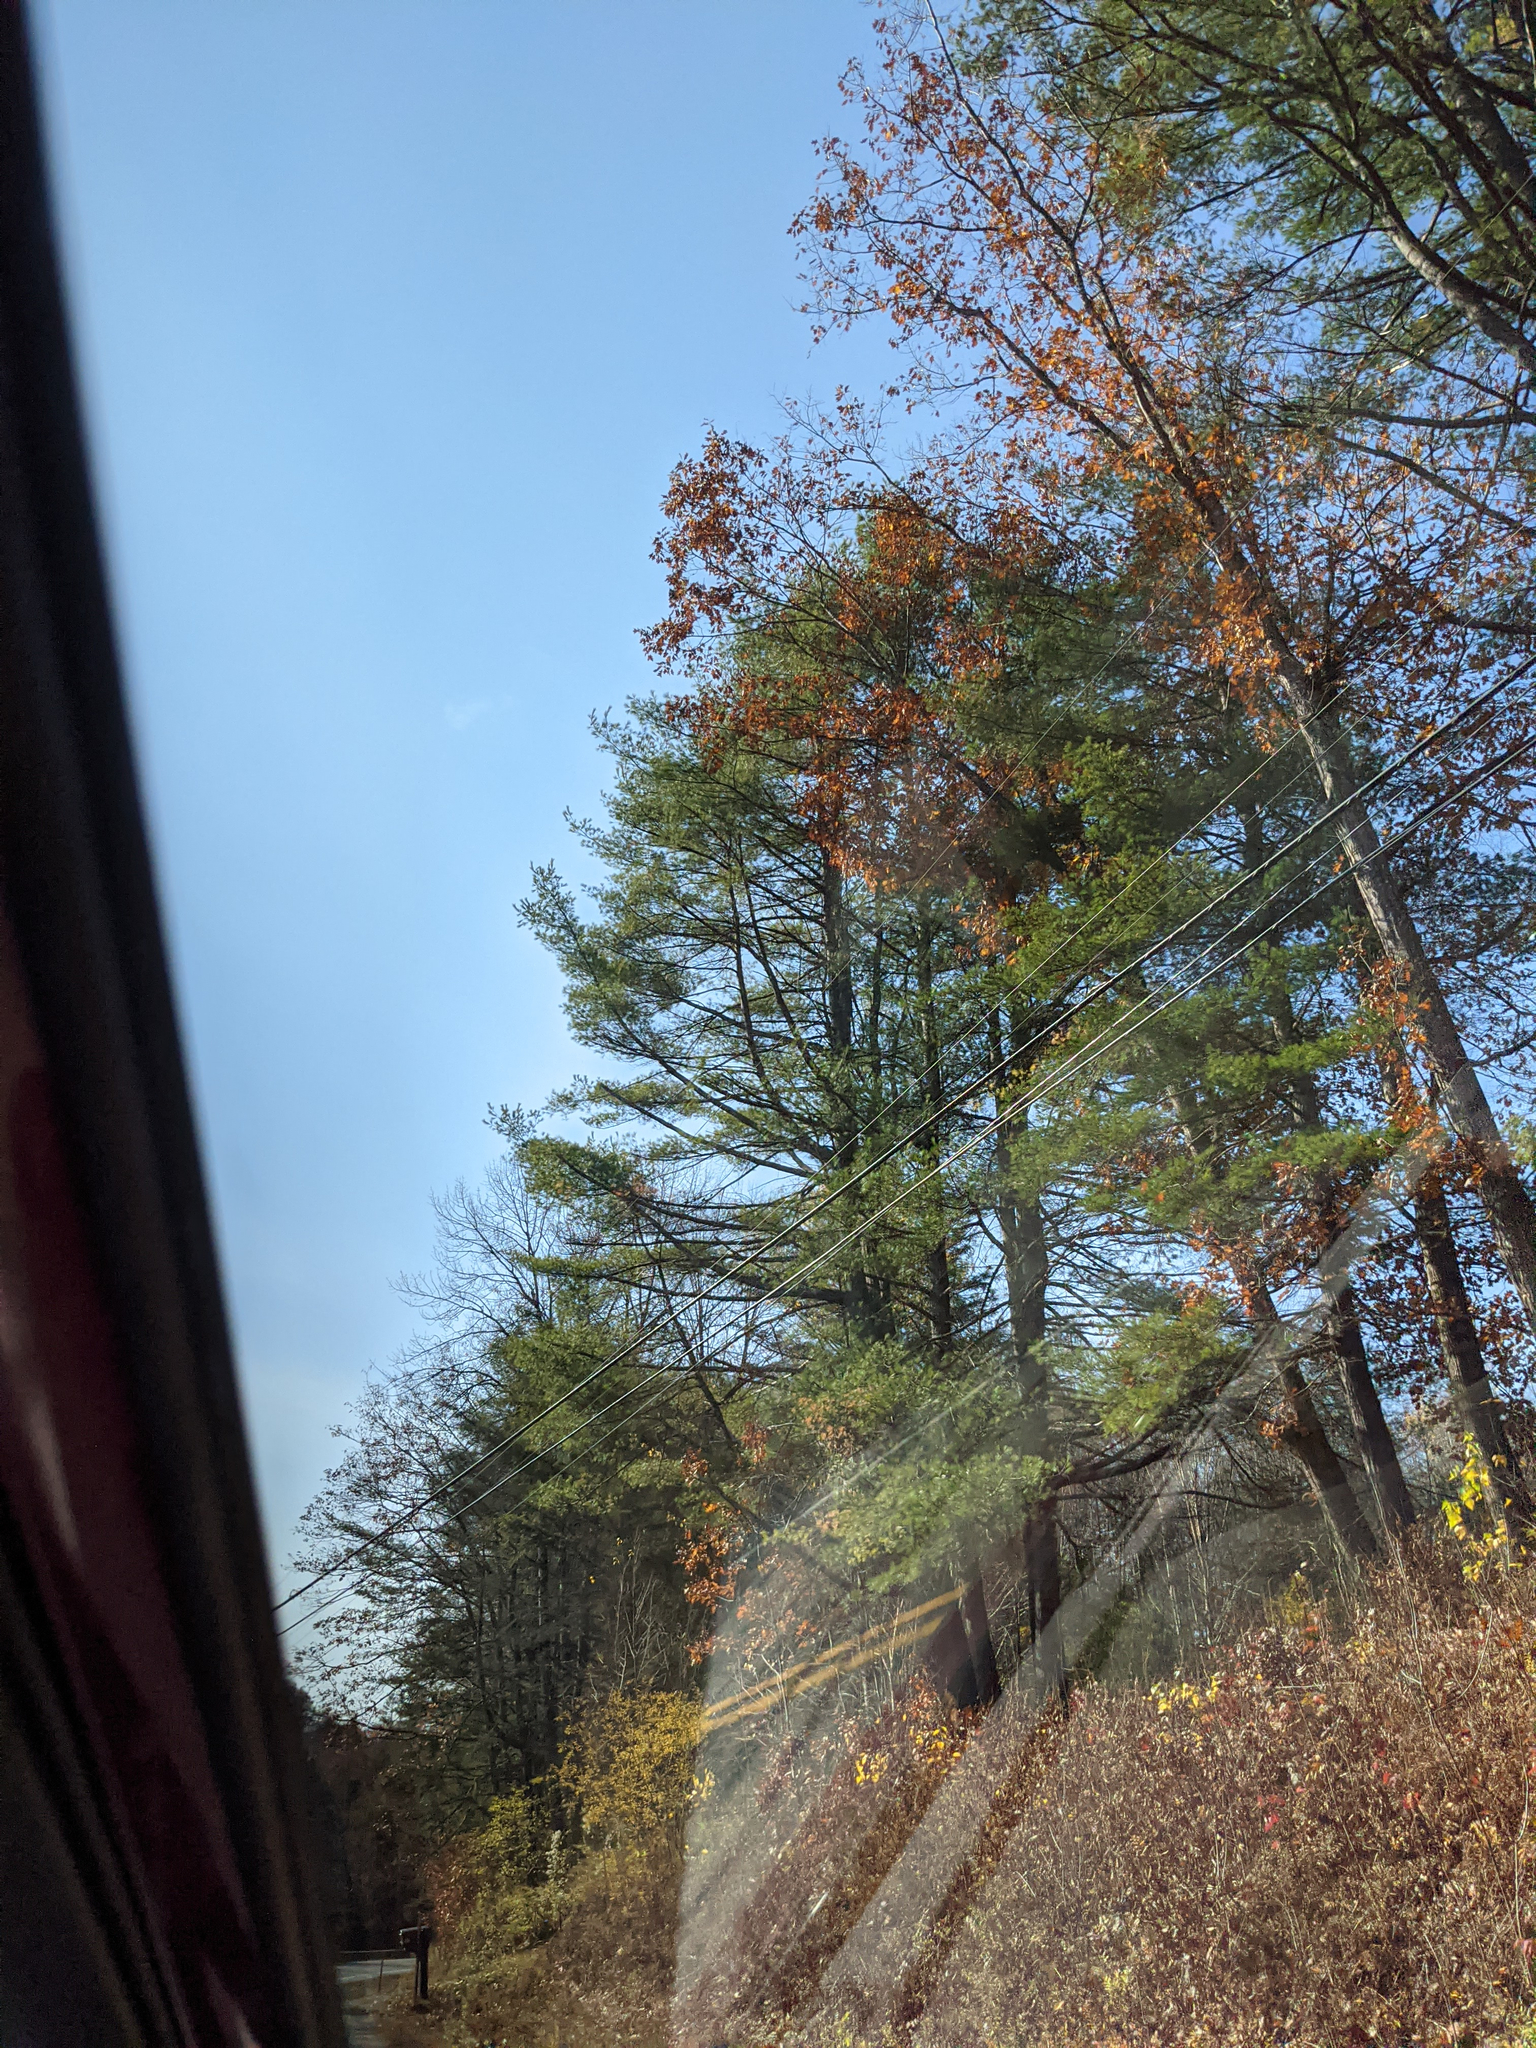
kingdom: Plantae
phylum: Tracheophyta
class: Pinopsida
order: Pinales
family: Pinaceae
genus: Pinus
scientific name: Pinus strobus
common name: Weymouth pine
